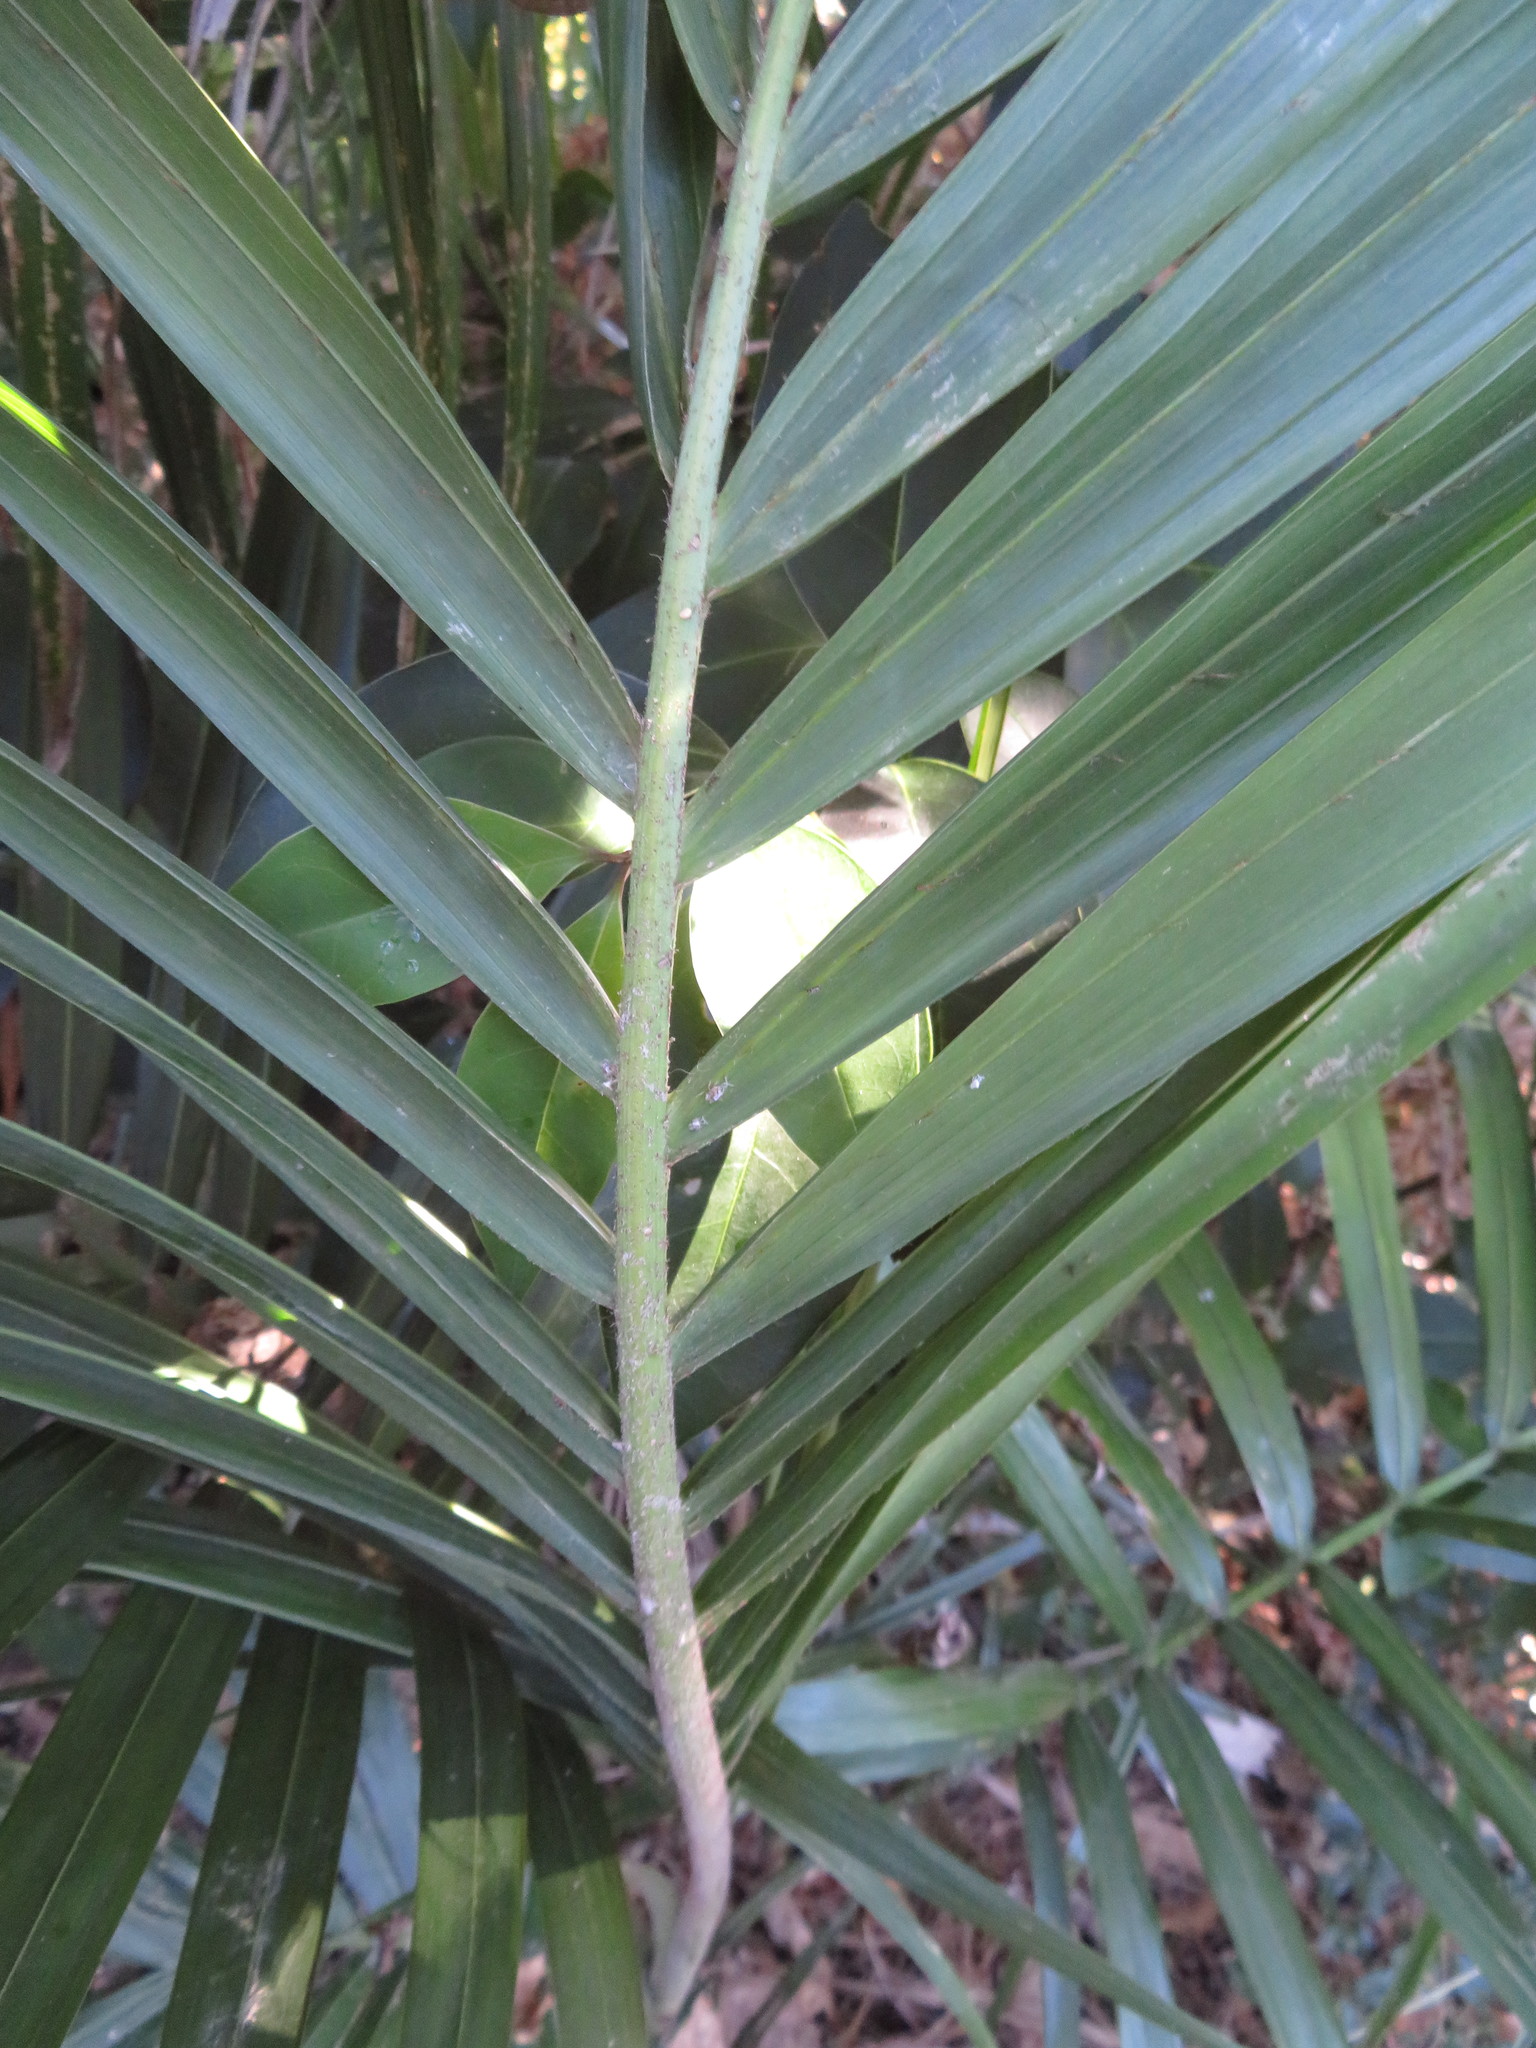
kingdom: Plantae
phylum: Tracheophyta
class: Liliopsida
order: Arecales
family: Arecaceae
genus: Archontophoenix
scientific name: Archontophoenix cunninghamiana
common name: Piccabeen bangalow palm
